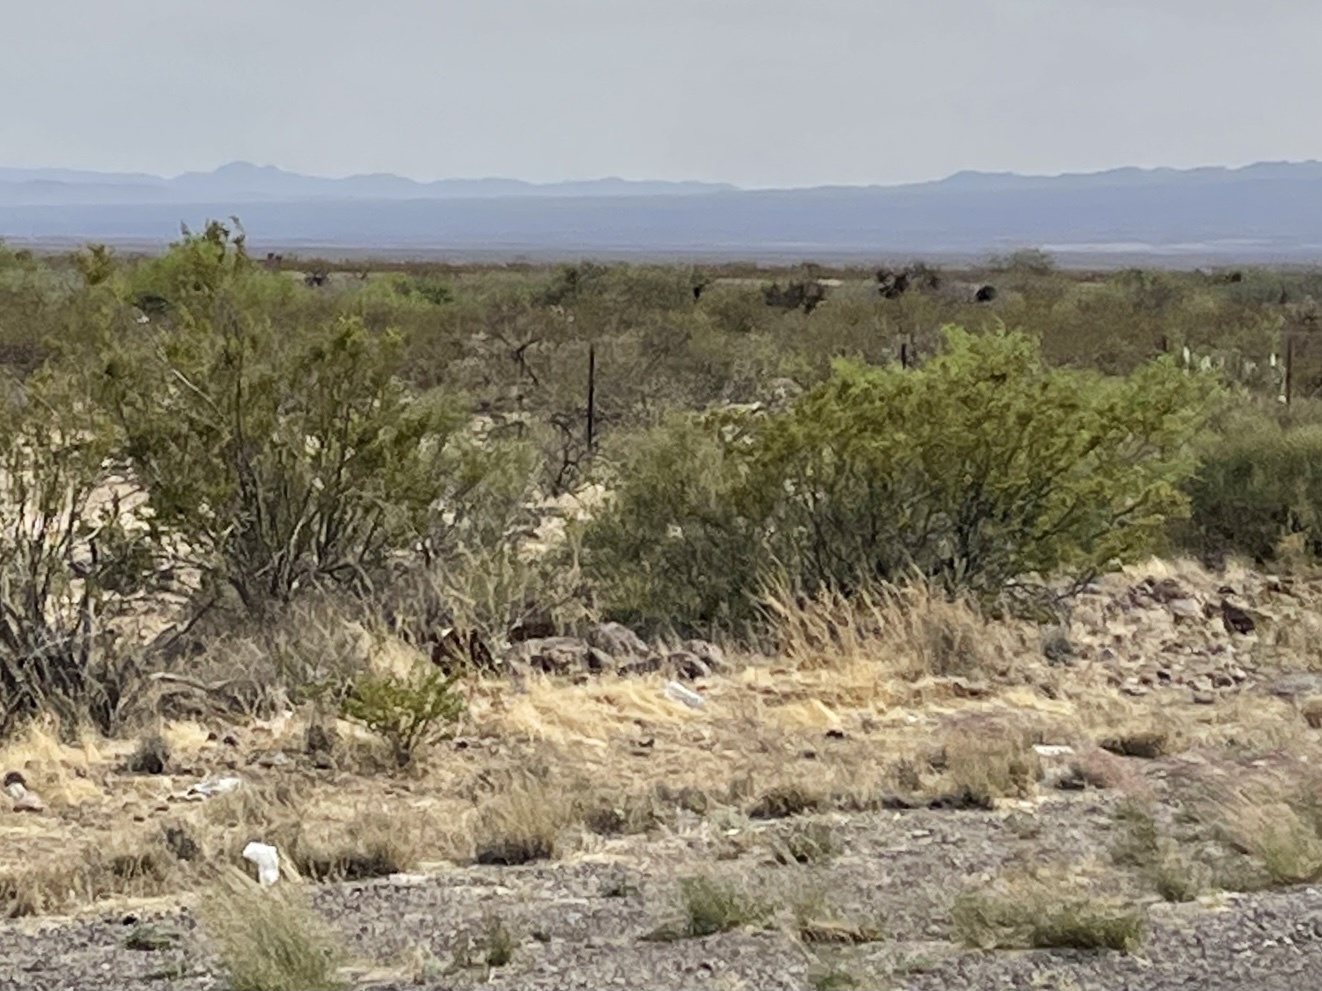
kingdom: Plantae
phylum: Tracheophyta
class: Magnoliopsida
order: Zygophyllales
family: Zygophyllaceae
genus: Larrea
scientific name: Larrea tridentata
